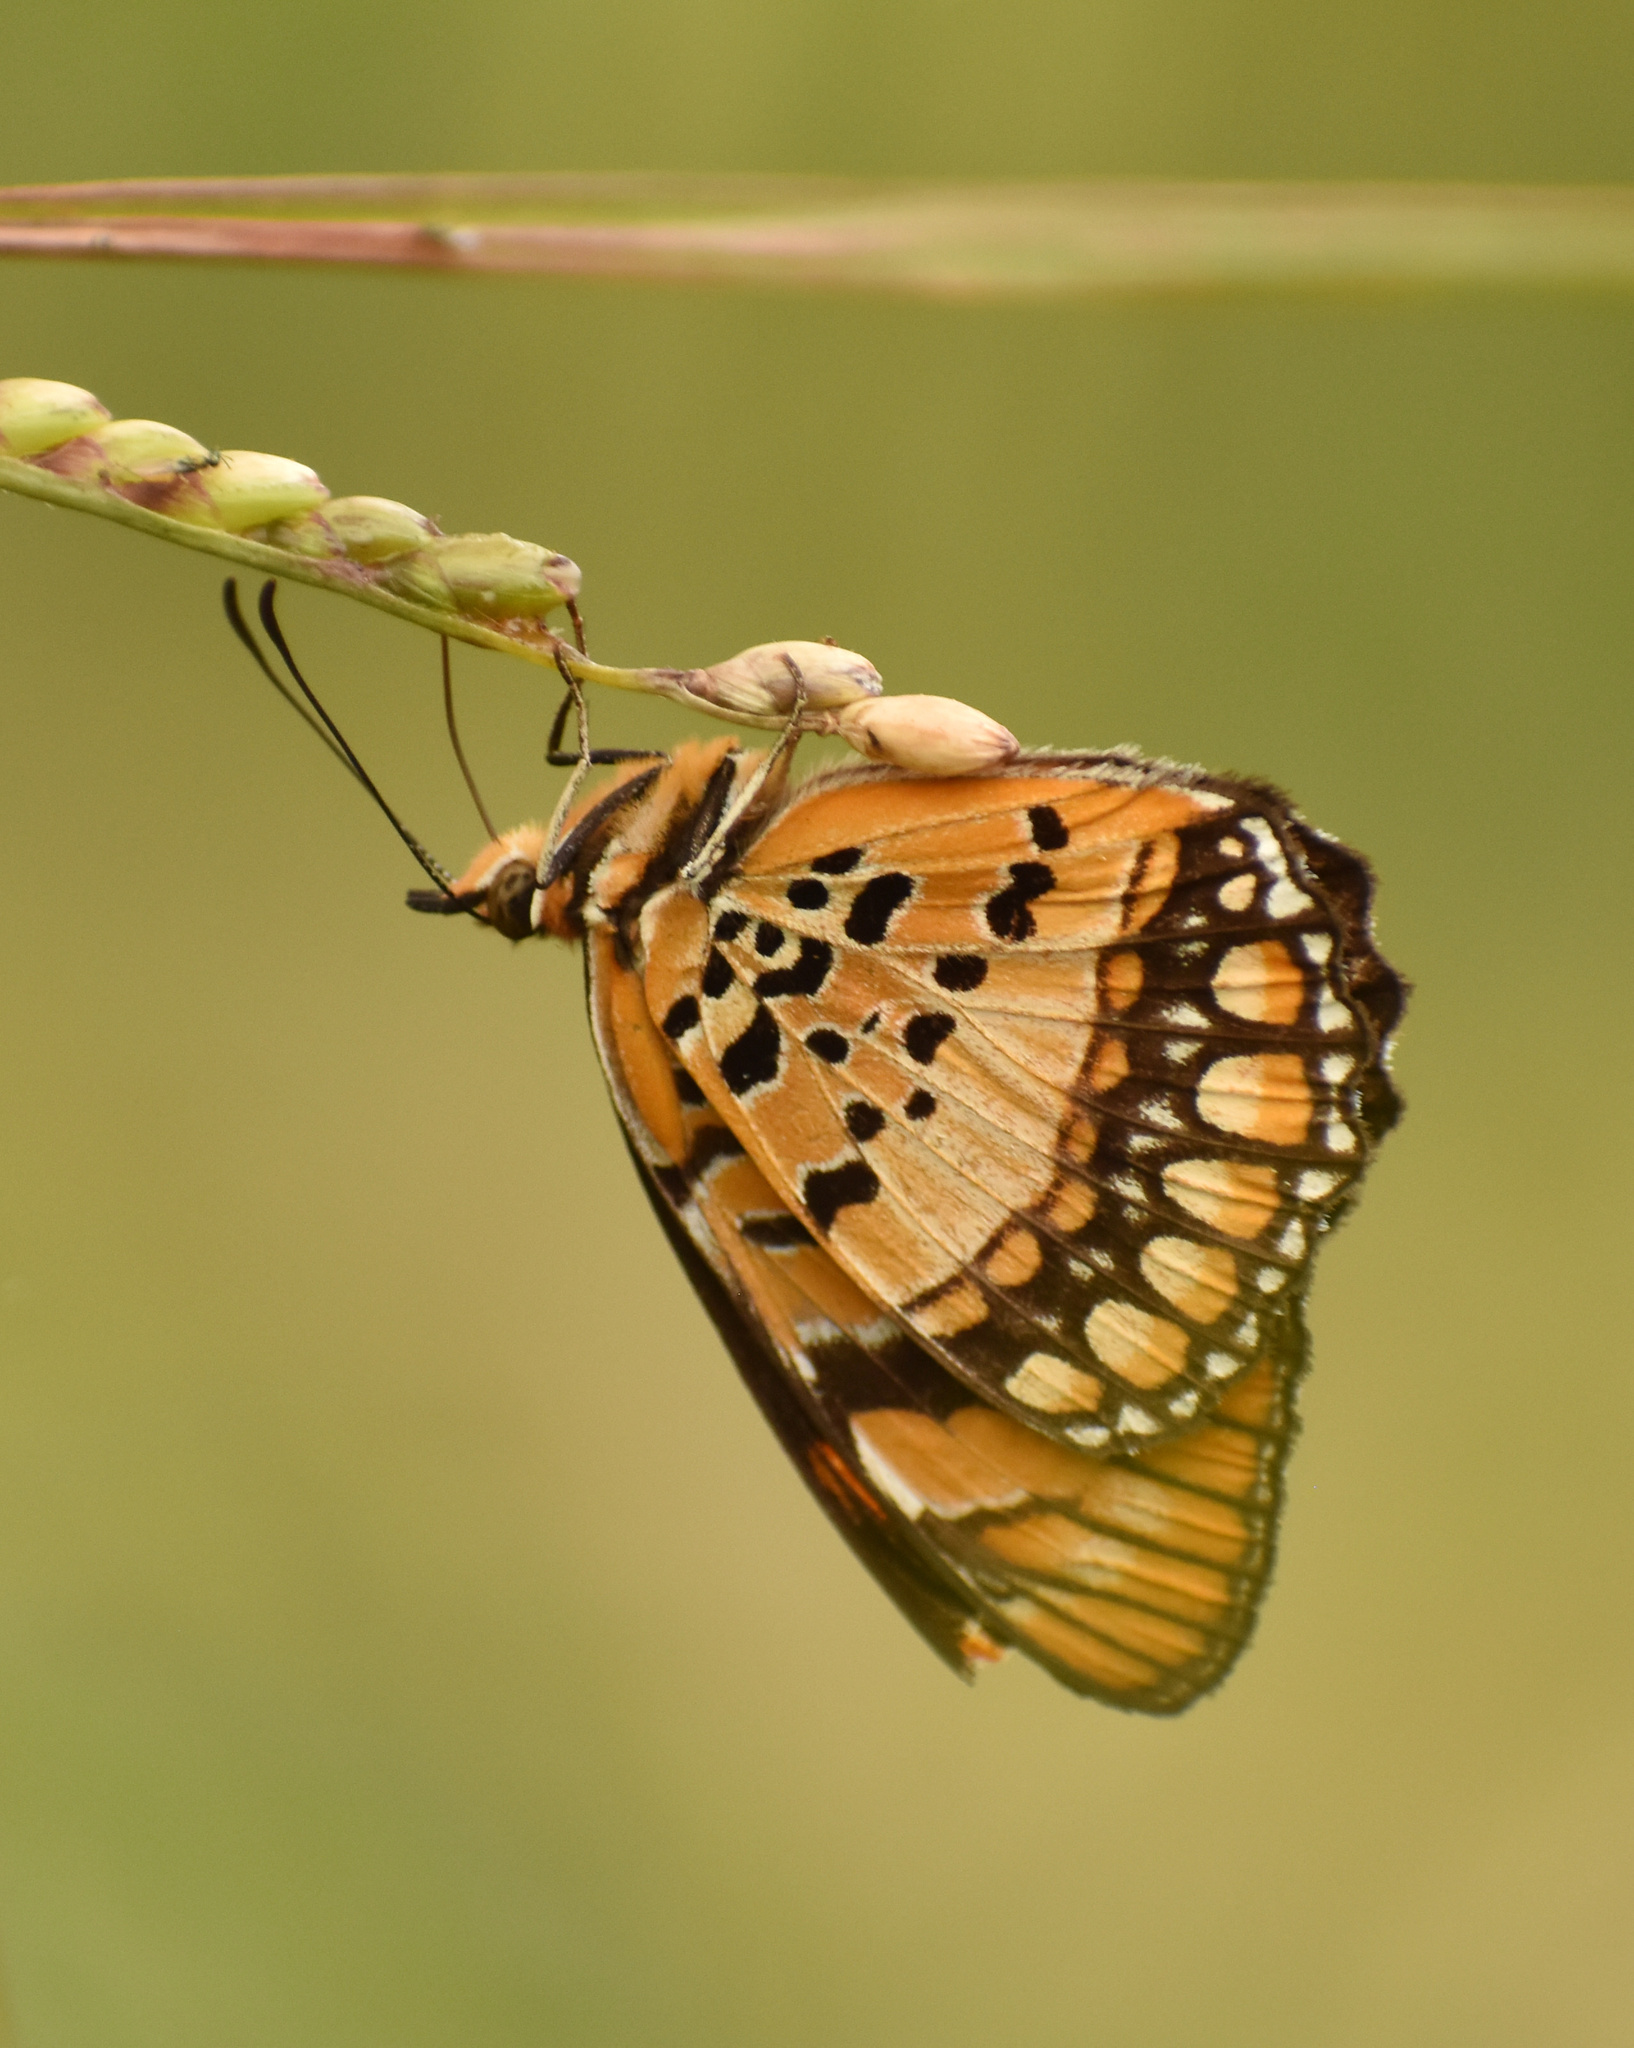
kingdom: Animalia
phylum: Arthropoda
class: Insecta
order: Lepidoptera
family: Nymphalidae
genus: Byblia
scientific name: Byblia acheloia
